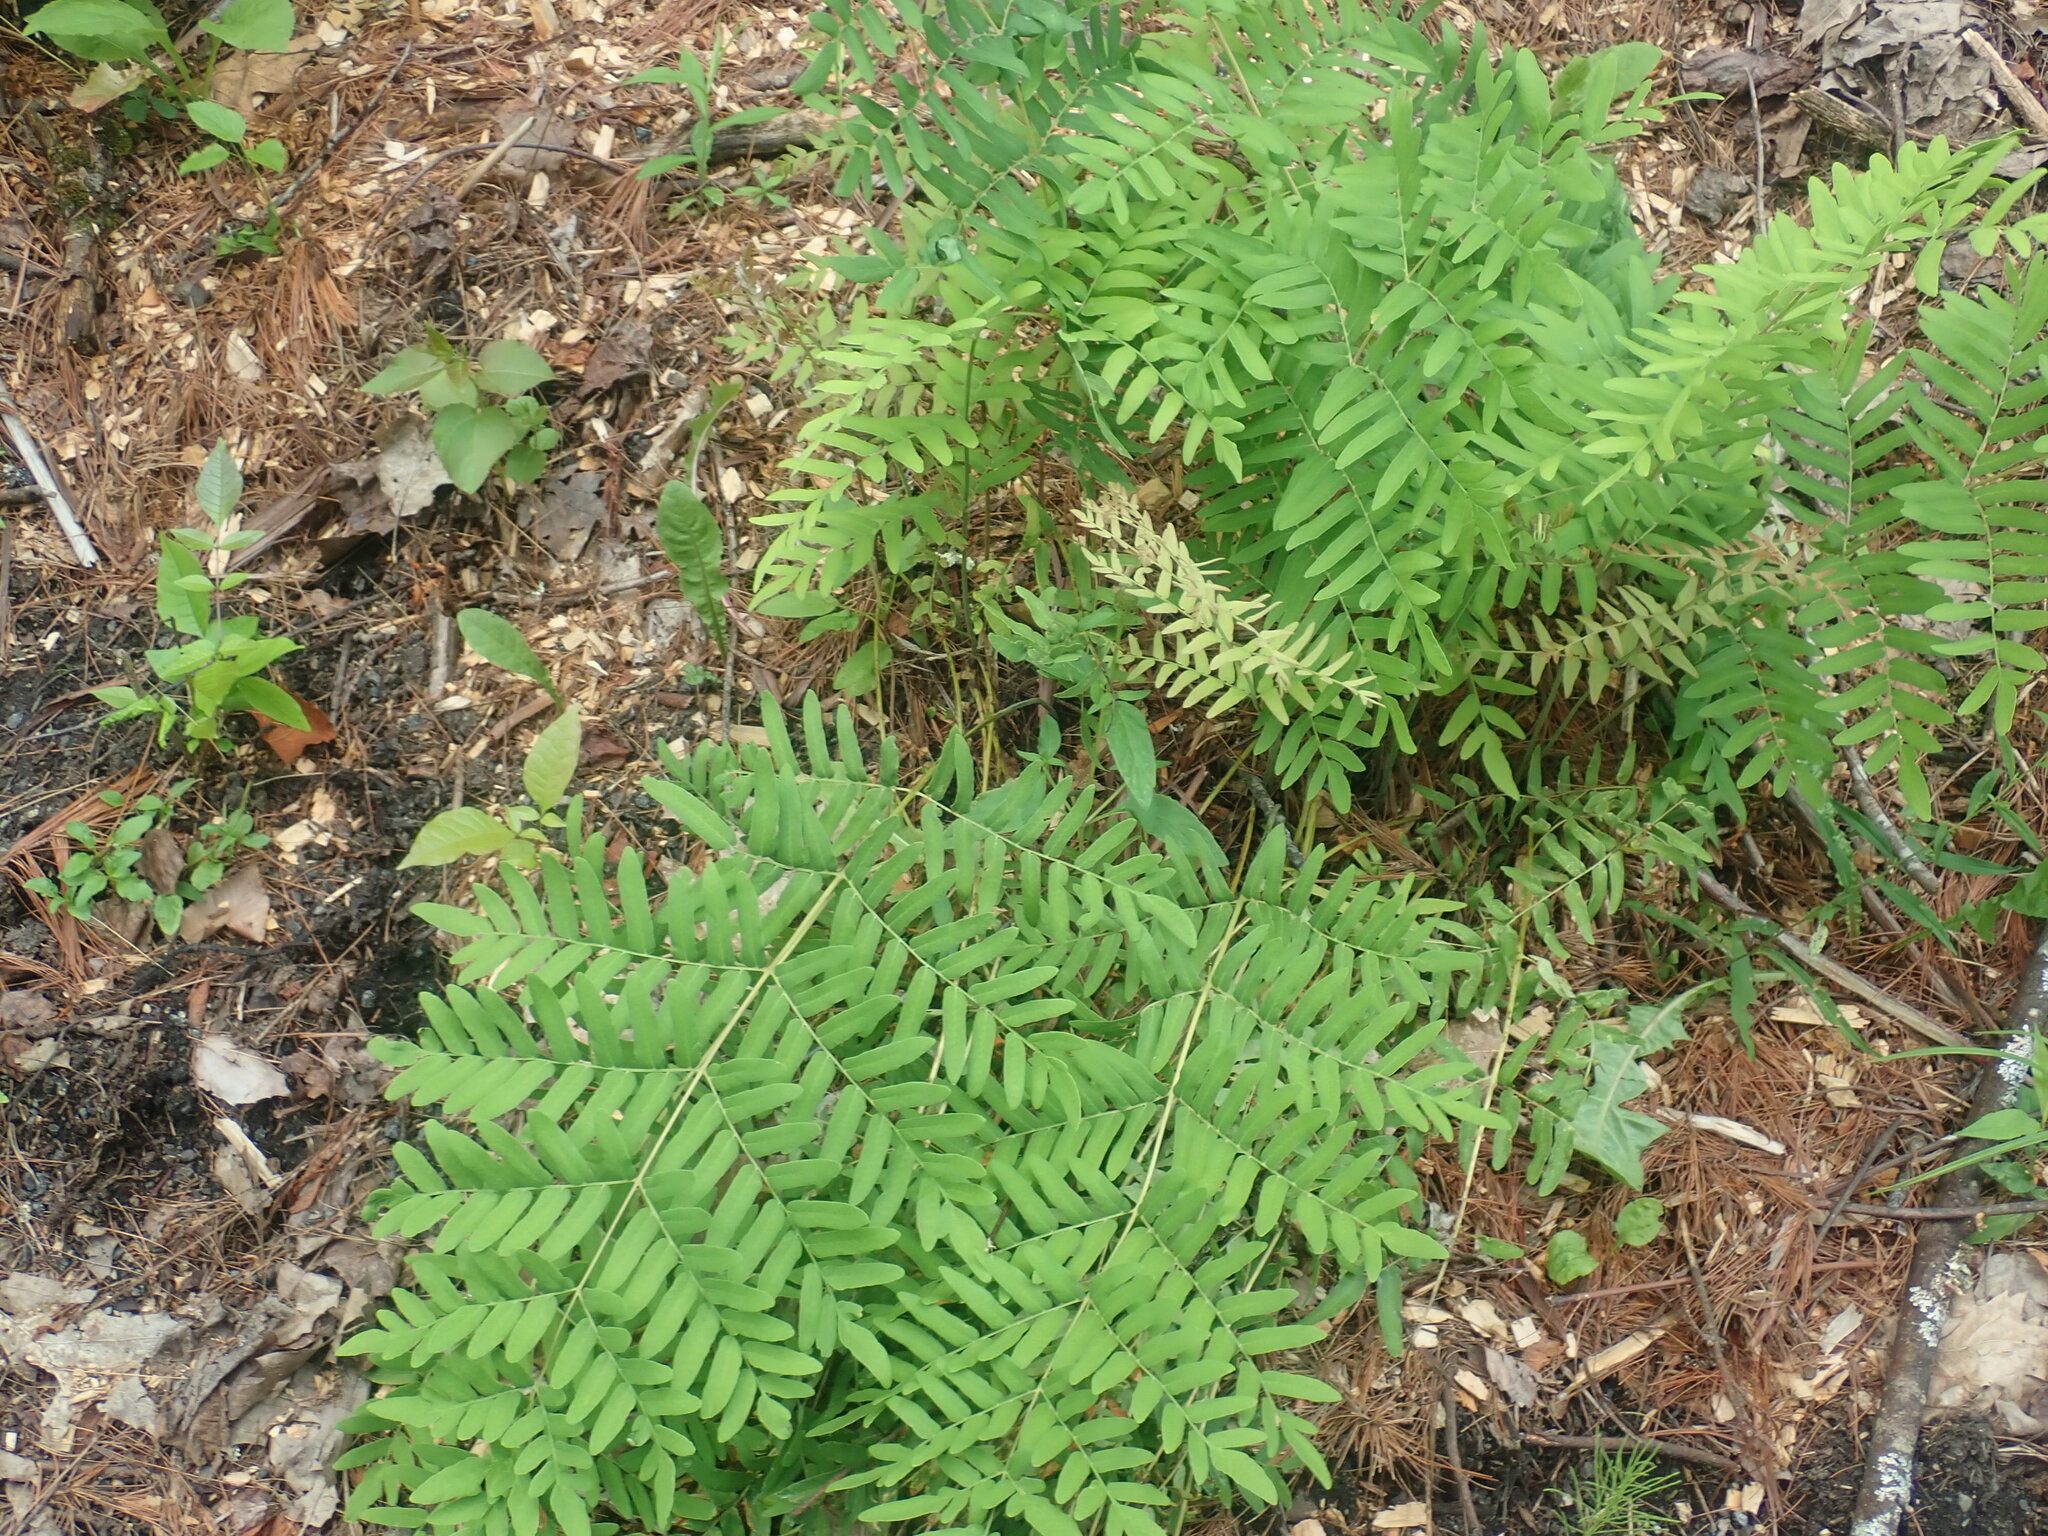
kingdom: Plantae
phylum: Tracheophyta
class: Polypodiopsida
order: Osmundales
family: Osmundaceae
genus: Osmunda
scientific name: Osmunda spectabilis
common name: American royal fern
